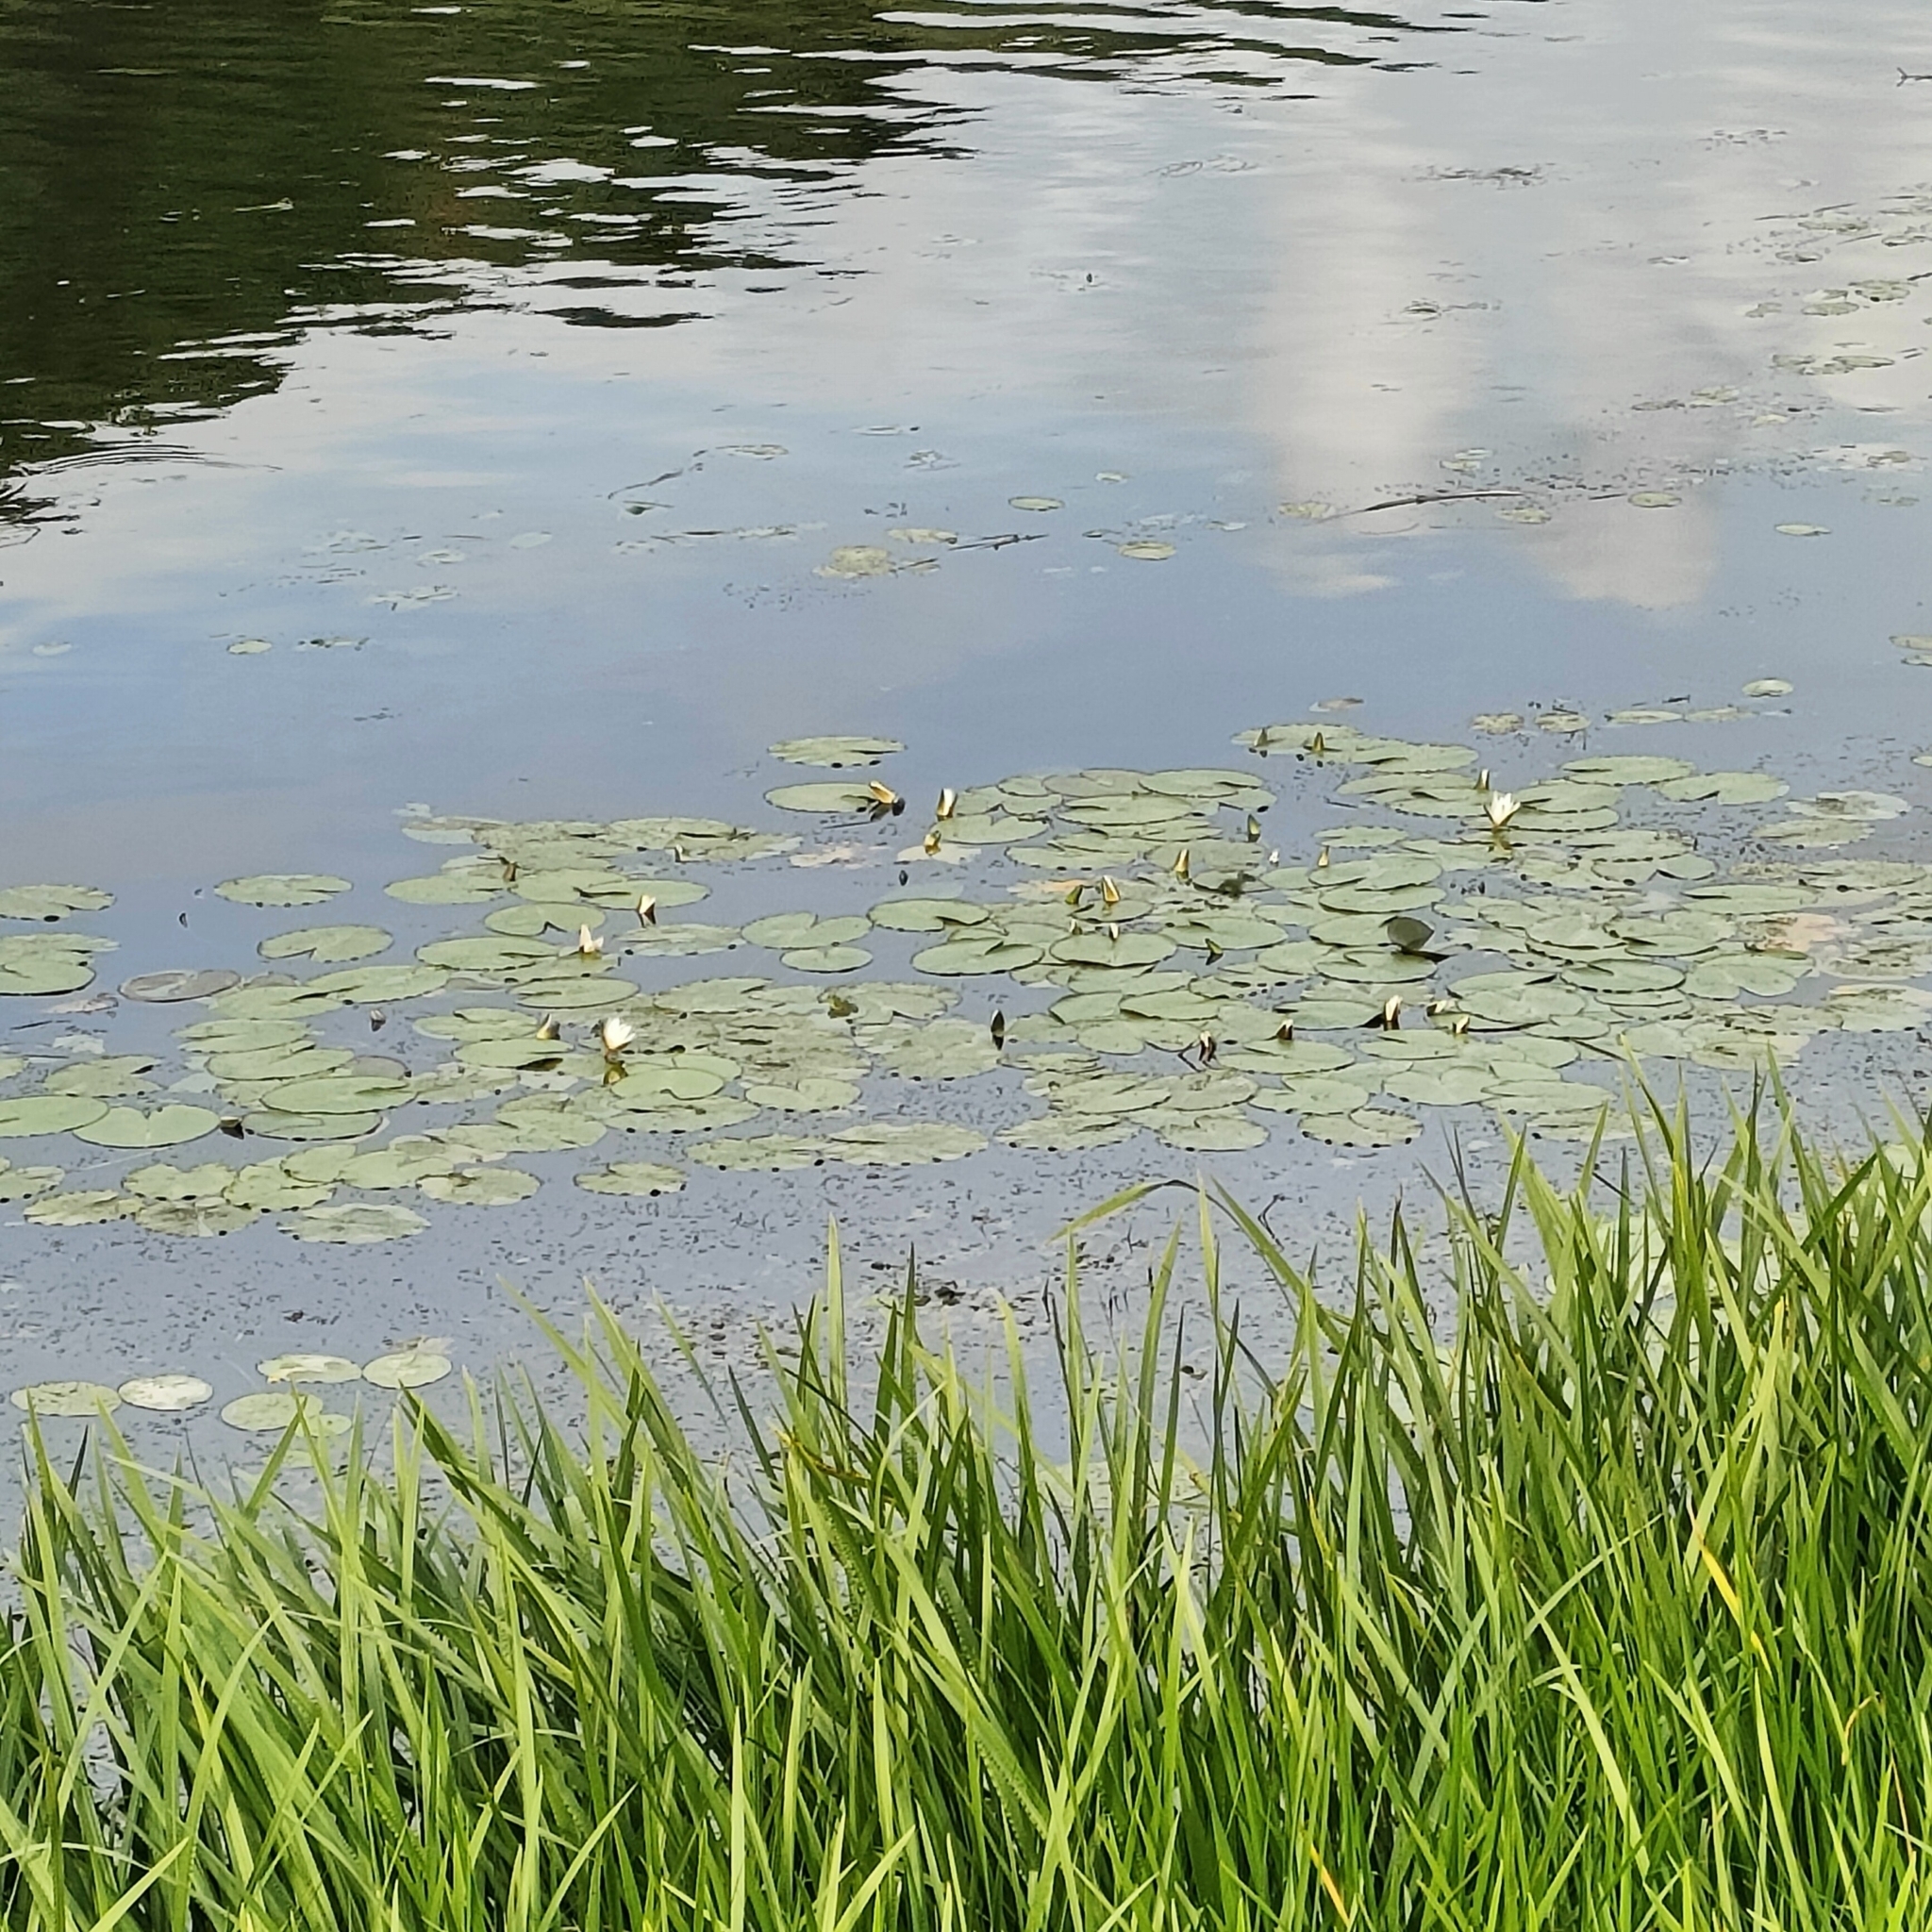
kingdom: Plantae
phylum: Tracheophyta
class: Magnoliopsida
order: Nymphaeales
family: Nymphaeaceae
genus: Nymphaea
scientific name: Nymphaea candida
